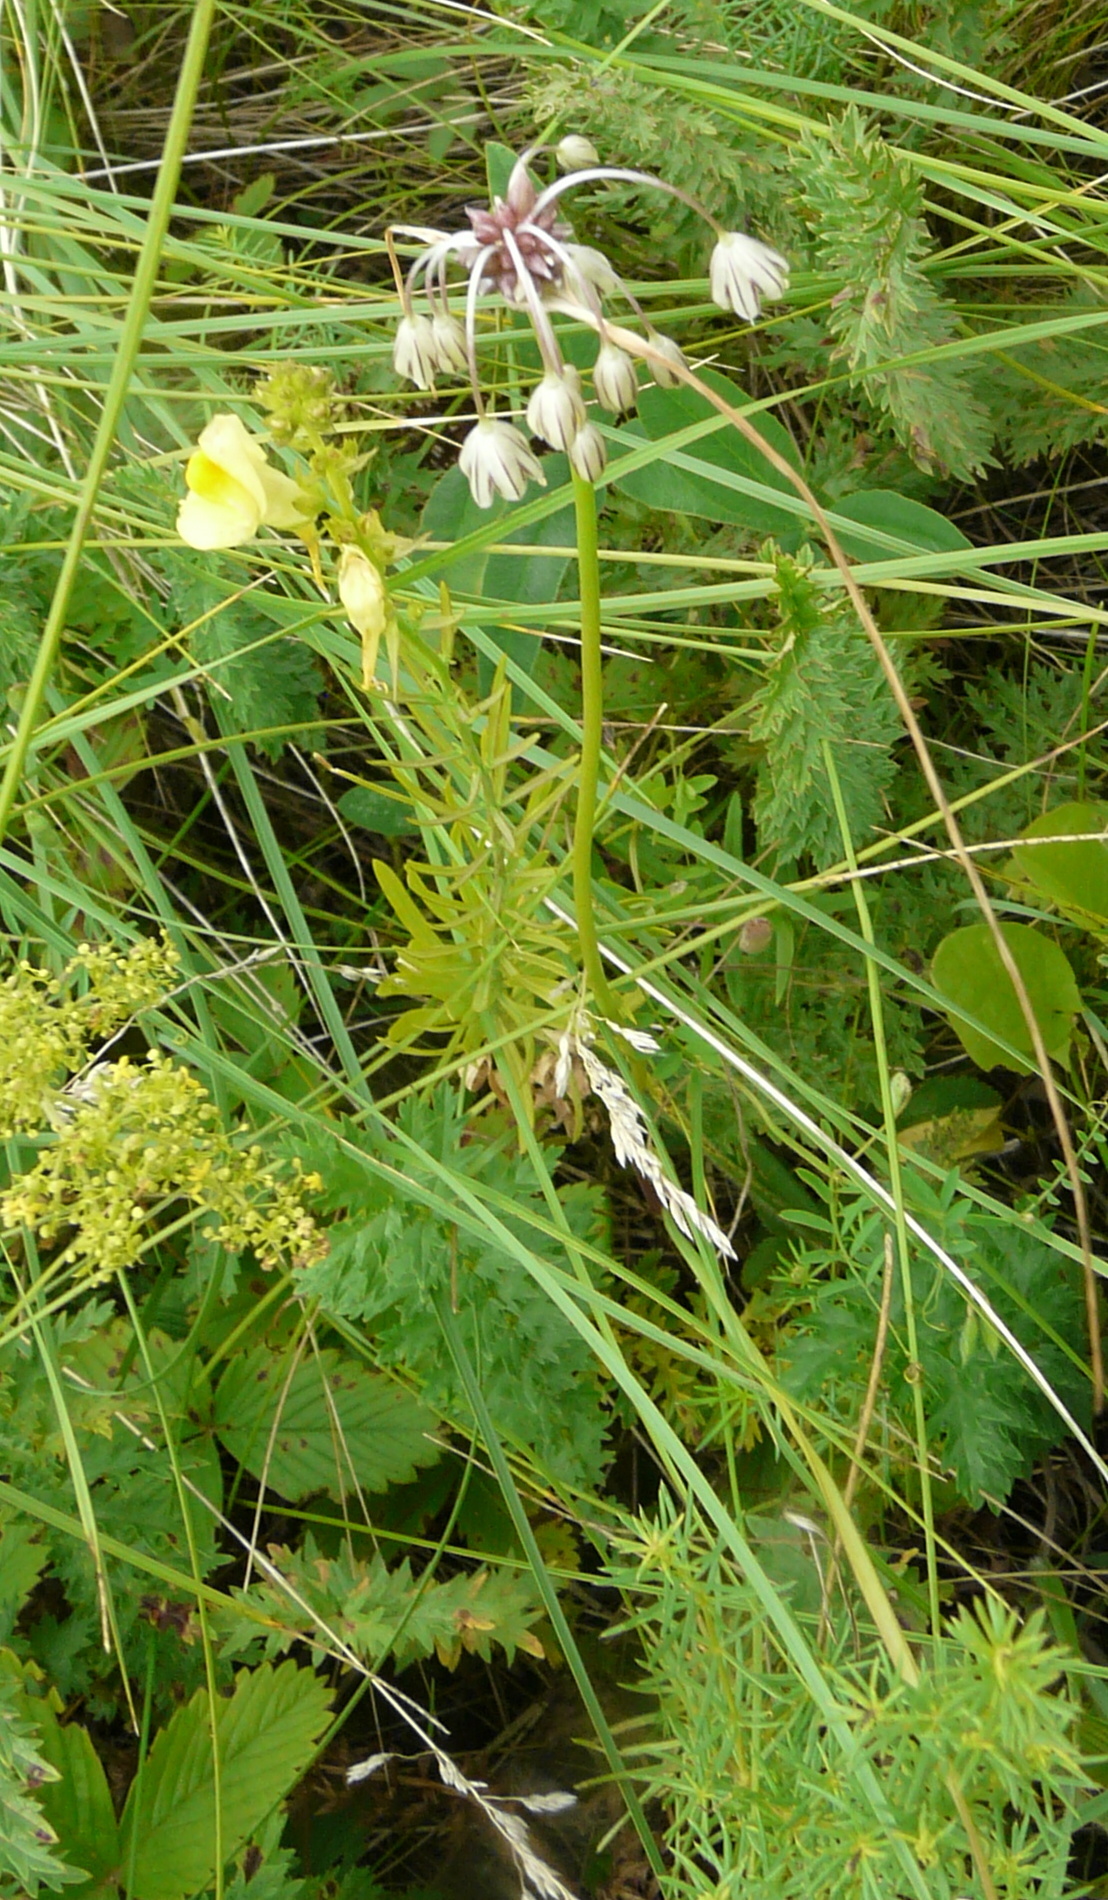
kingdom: Plantae
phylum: Tracheophyta
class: Liliopsida
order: Asparagales
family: Amaryllidaceae
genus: Allium
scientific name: Allium oleraceum
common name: Field garlic
